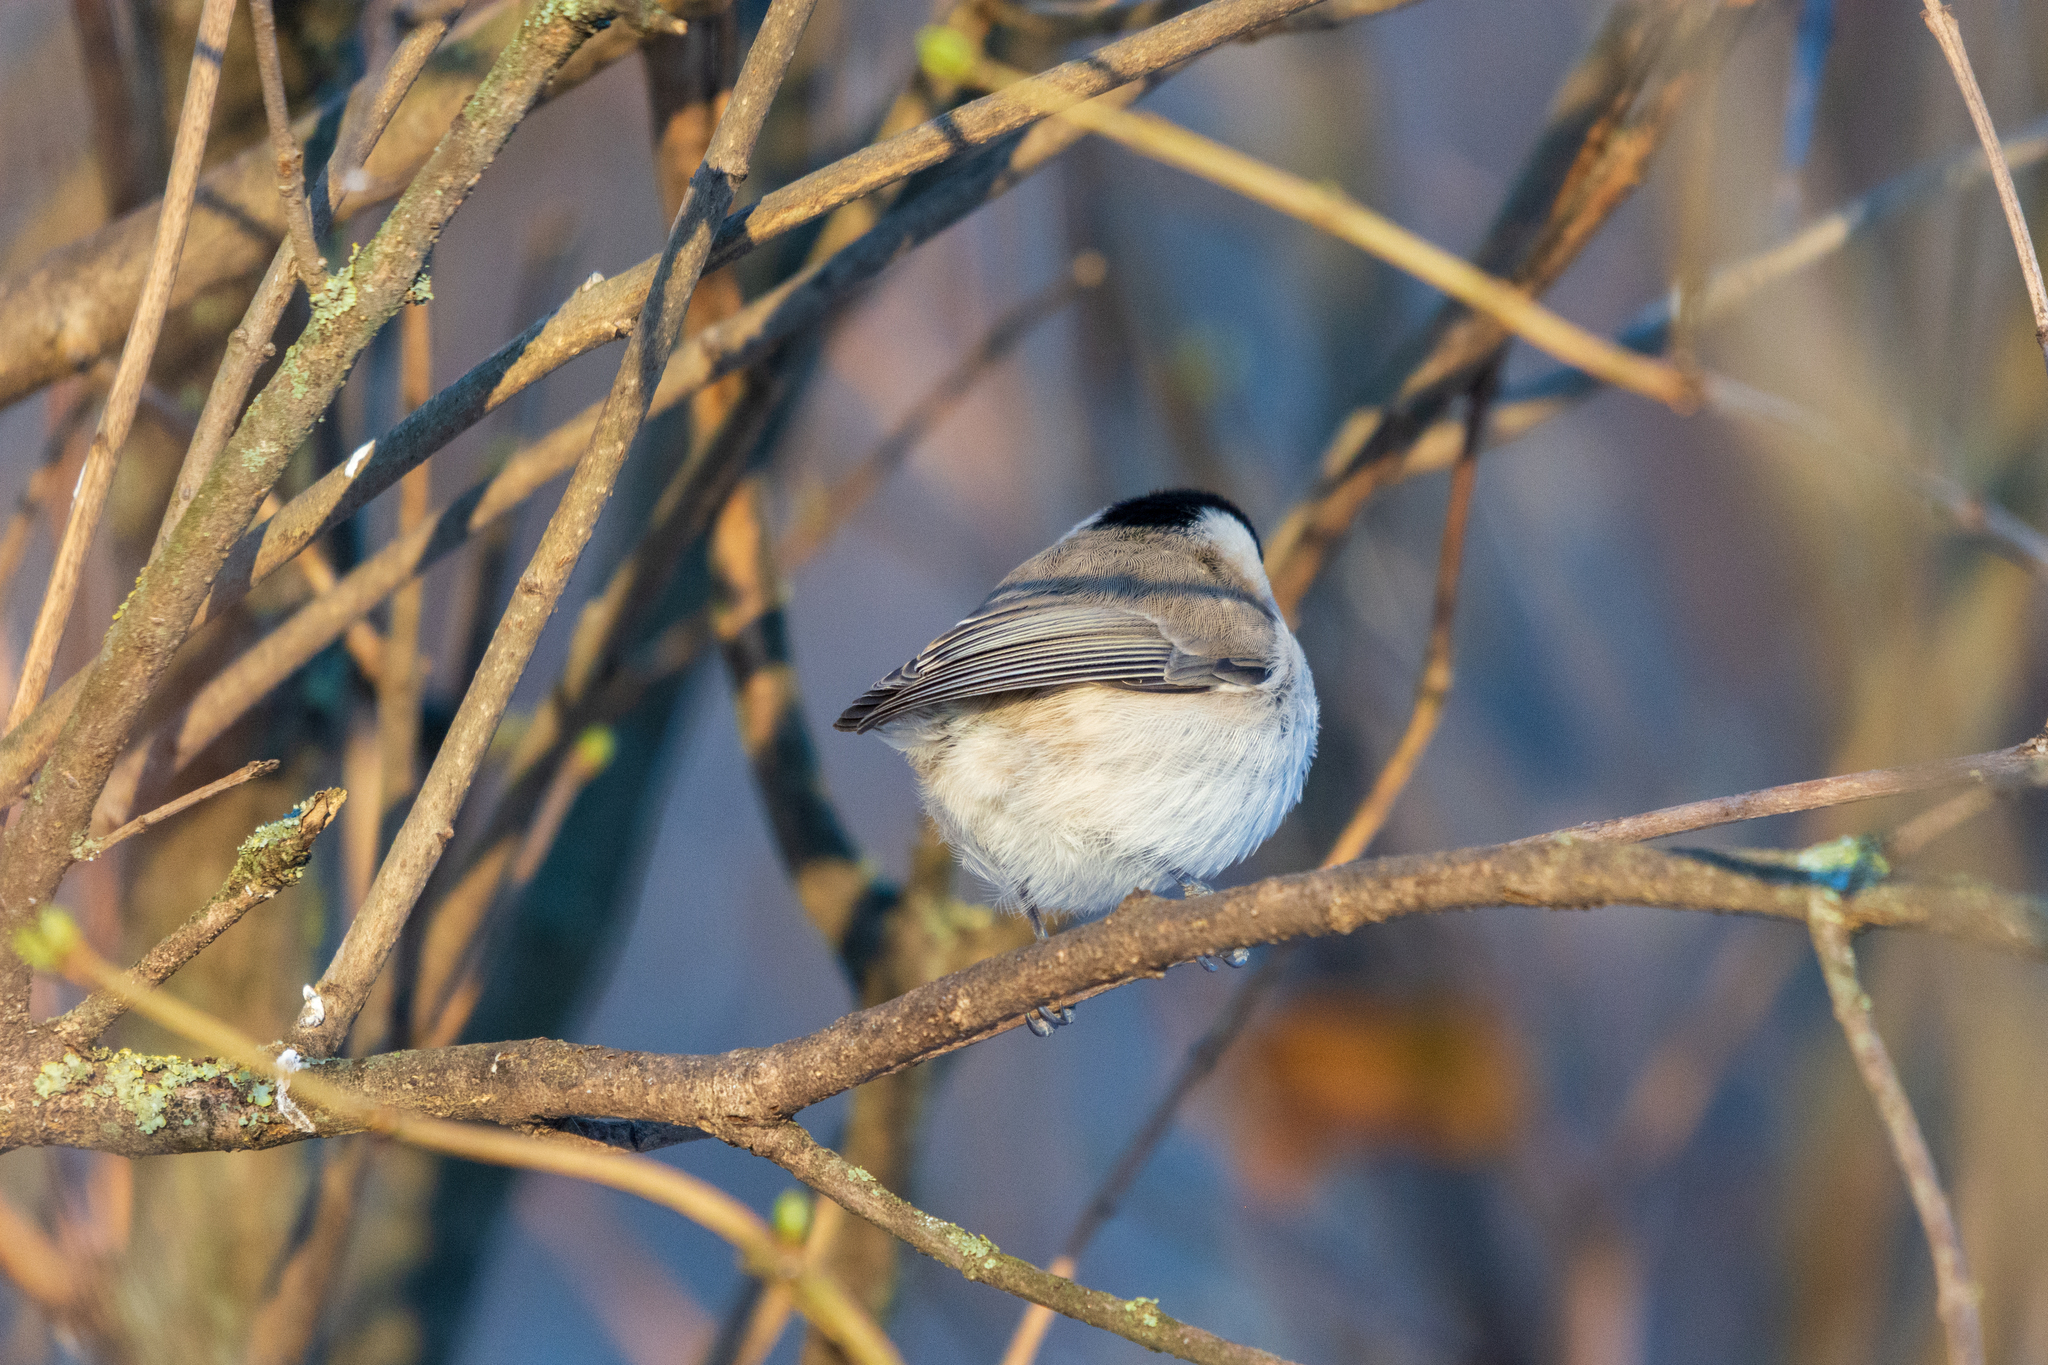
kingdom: Animalia
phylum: Chordata
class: Aves
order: Passeriformes
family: Paridae
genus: Poecile
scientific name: Poecile
